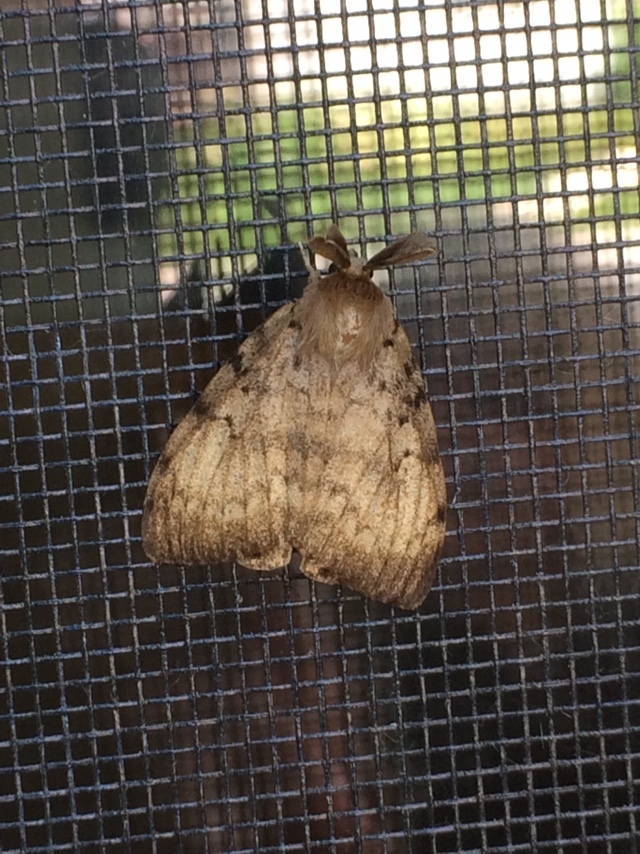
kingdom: Animalia
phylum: Arthropoda
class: Insecta
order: Lepidoptera
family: Erebidae
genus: Lymantria
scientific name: Lymantria dispar
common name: Gypsy moth
